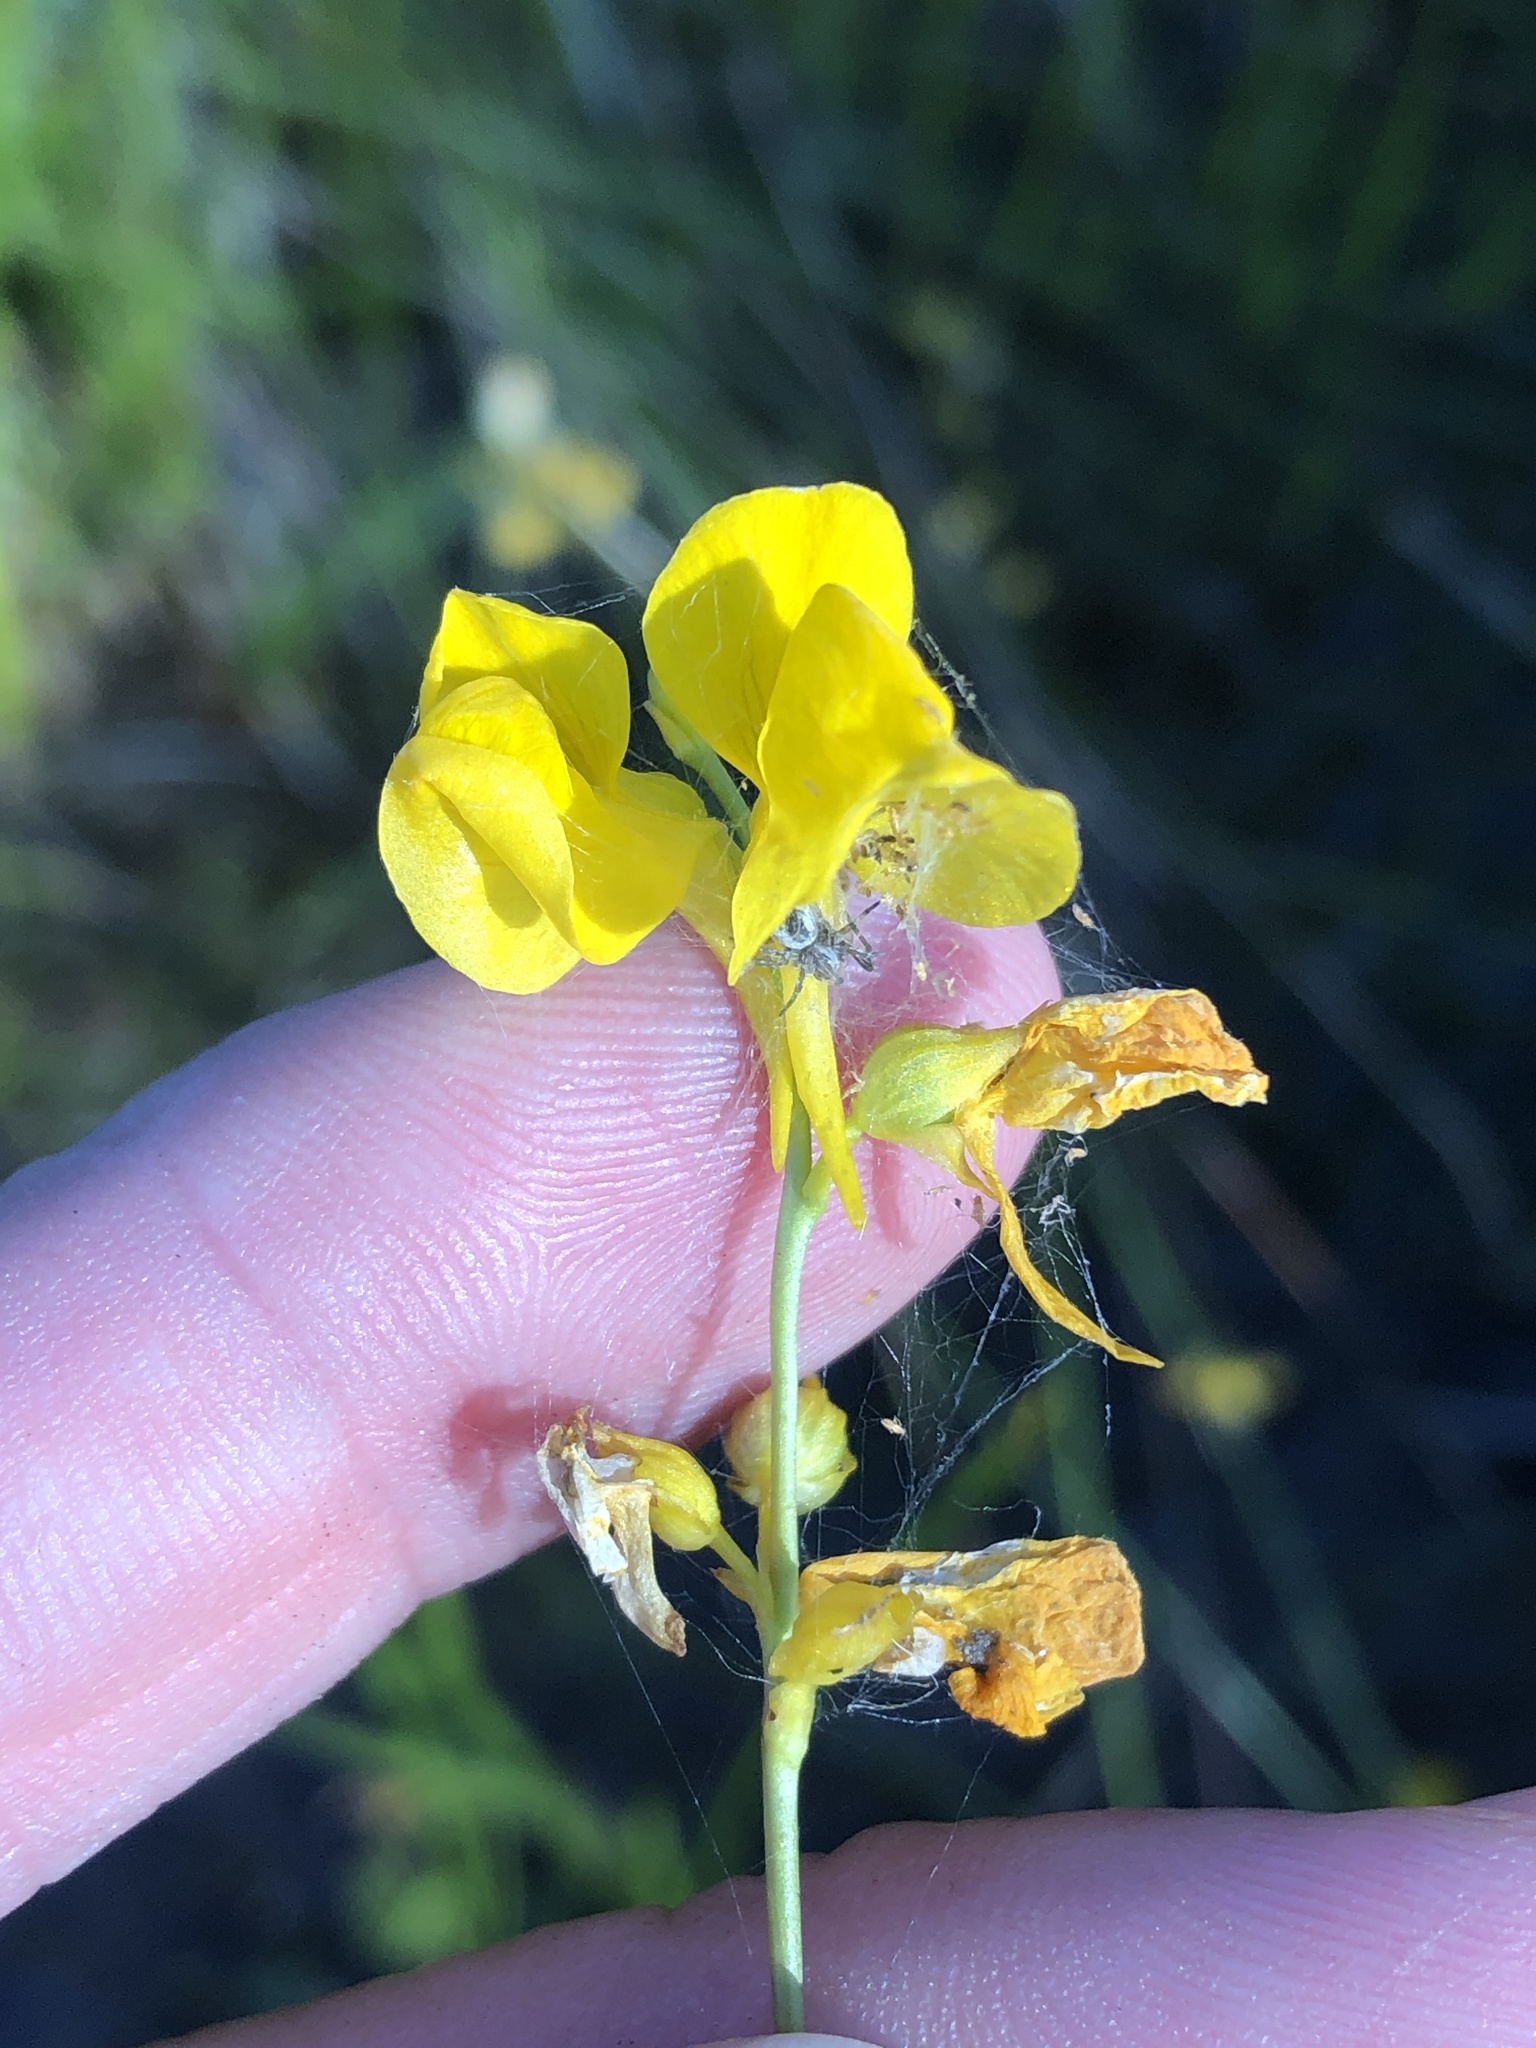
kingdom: Plantae
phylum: Tracheophyta
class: Magnoliopsida
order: Lamiales
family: Lentibulariaceae
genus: Utricularia
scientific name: Utricularia cornuta
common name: Horned bladderwort
